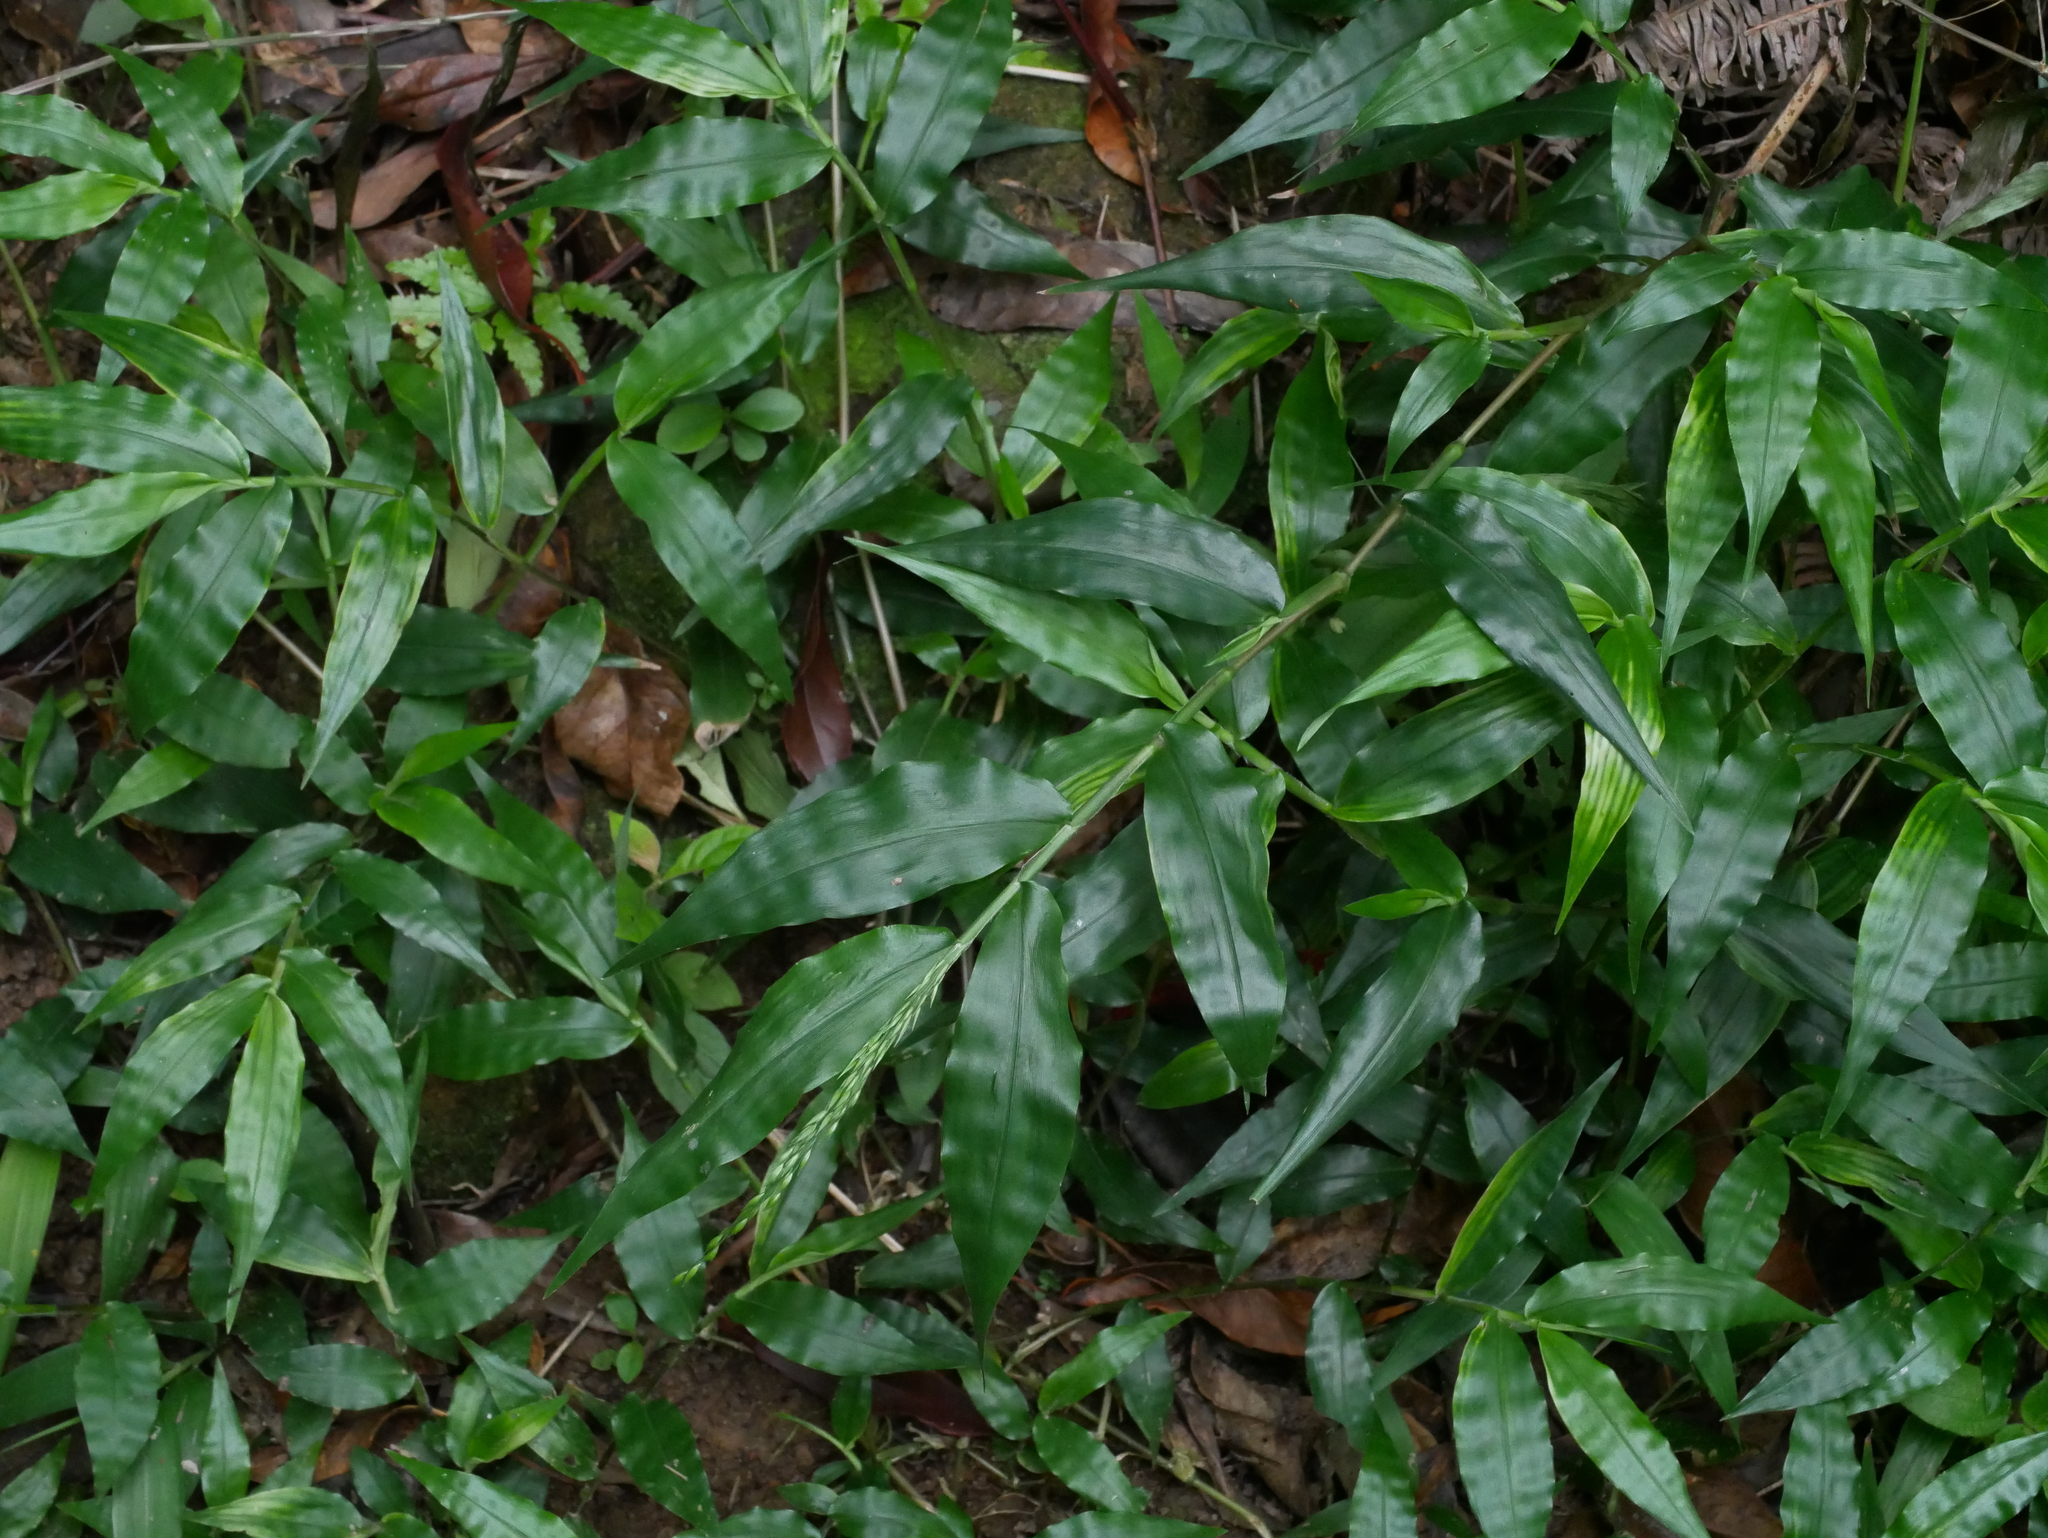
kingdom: Plantae
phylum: Tracheophyta
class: Liliopsida
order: Poales
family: Poaceae
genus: Ichnanthus
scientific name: Ichnanthus pallens
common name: Water grass
